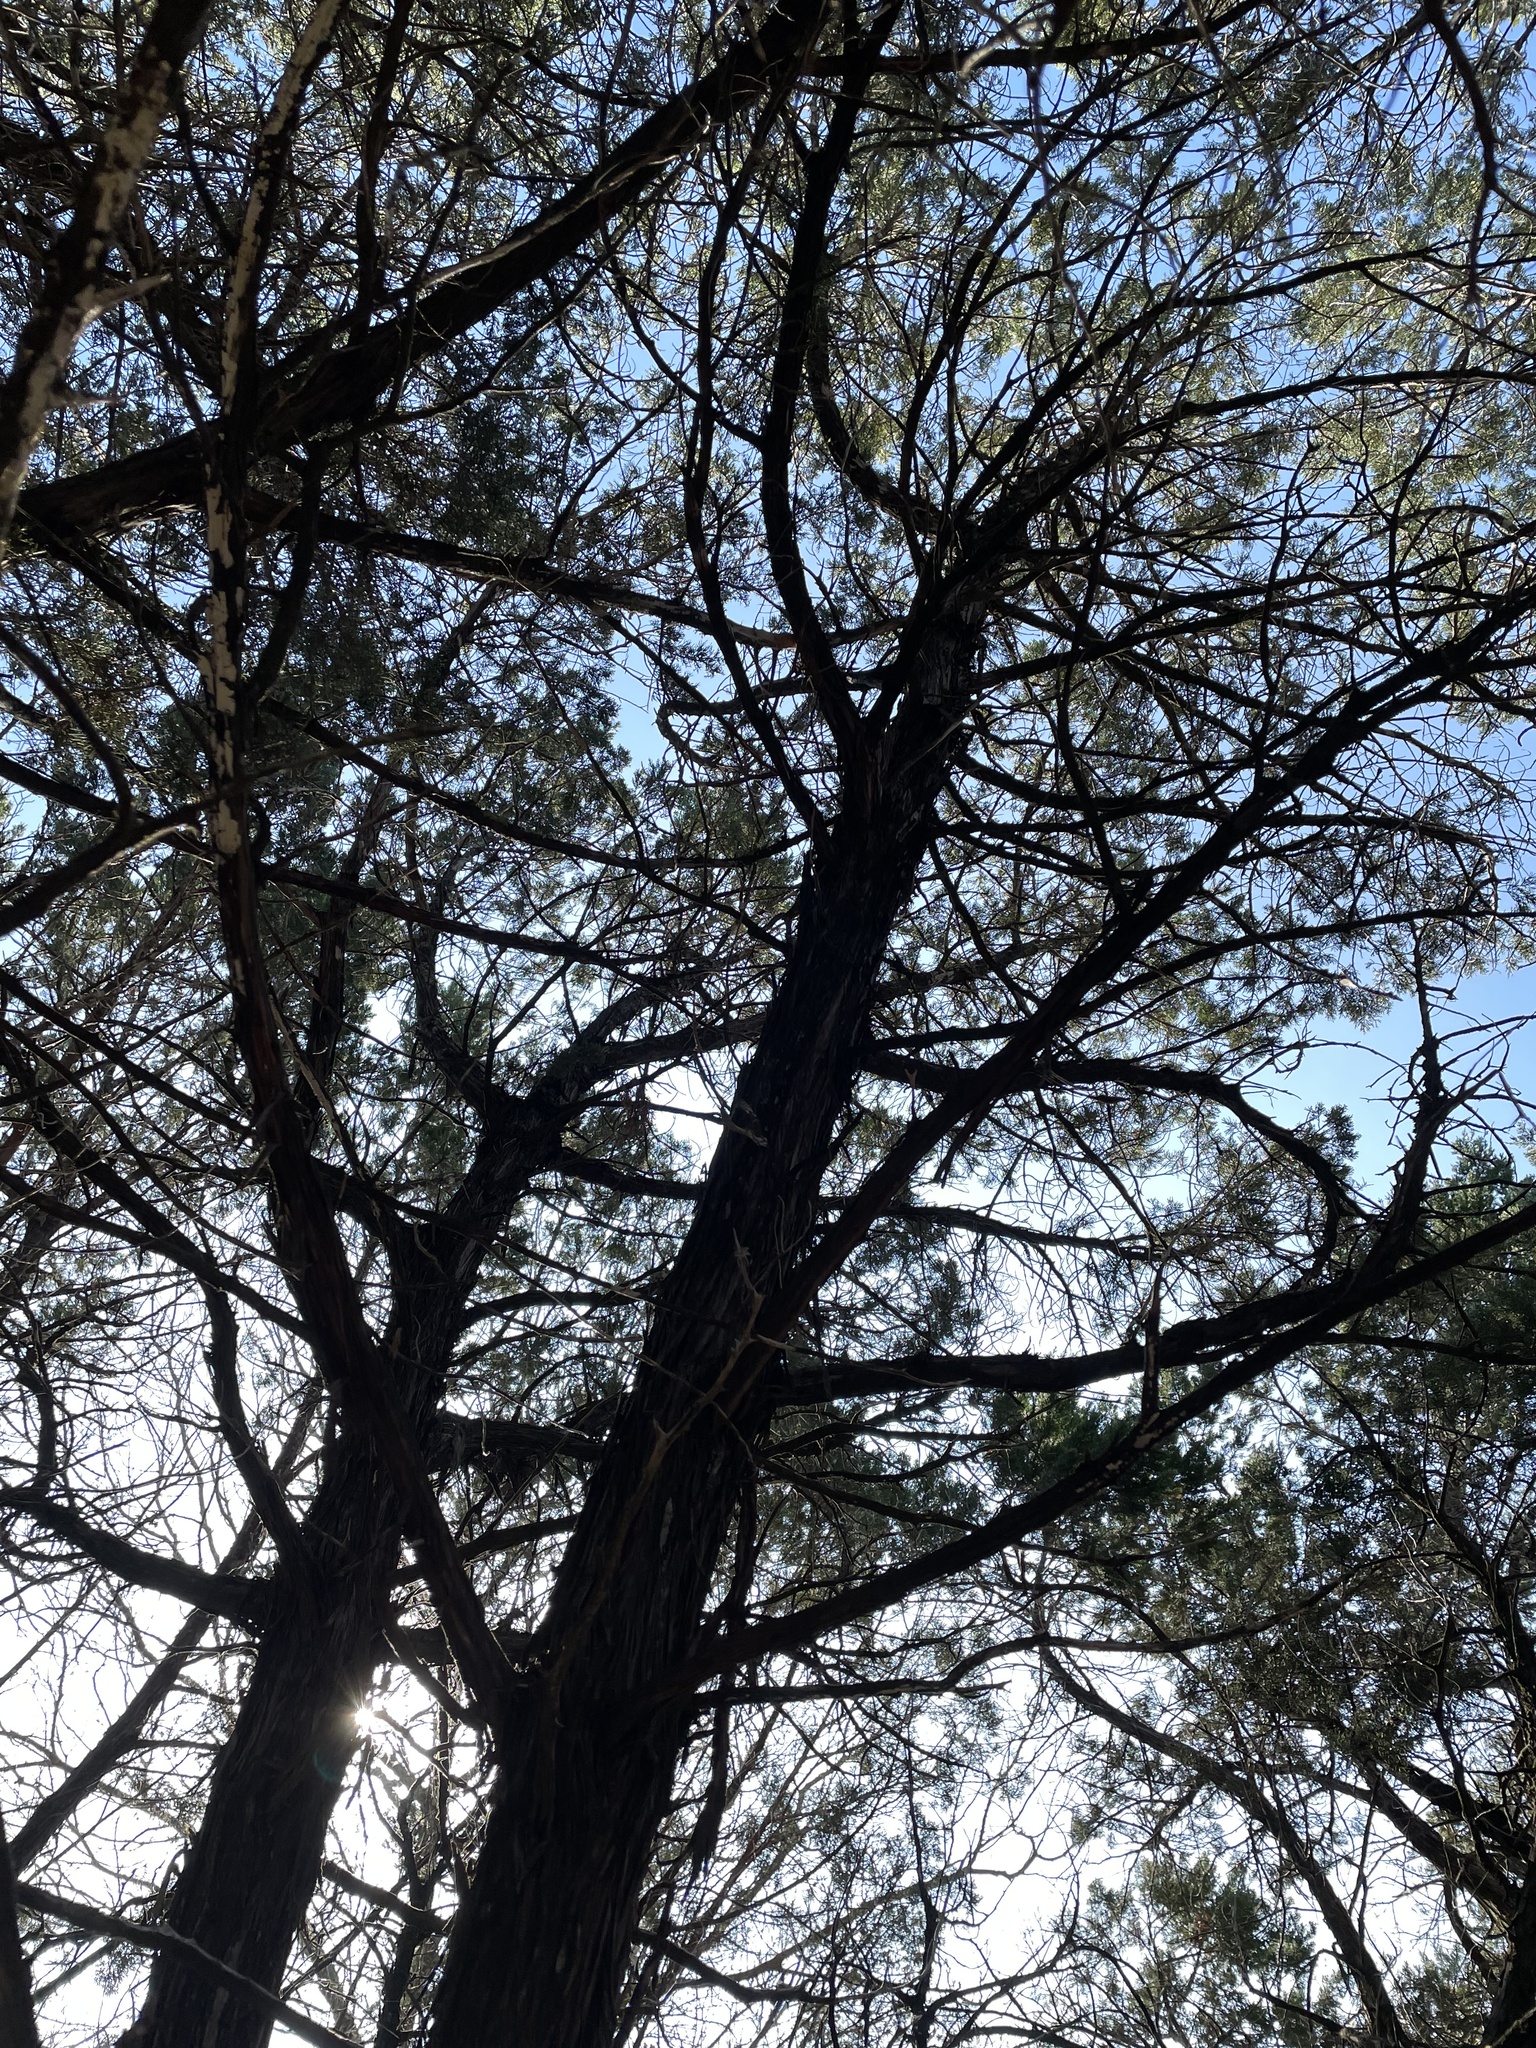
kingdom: Plantae
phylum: Tracheophyta
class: Pinopsida
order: Pinales
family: Cupressaceae
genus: Juniperus
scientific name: Juniperus ashei
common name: Mexican juniper
